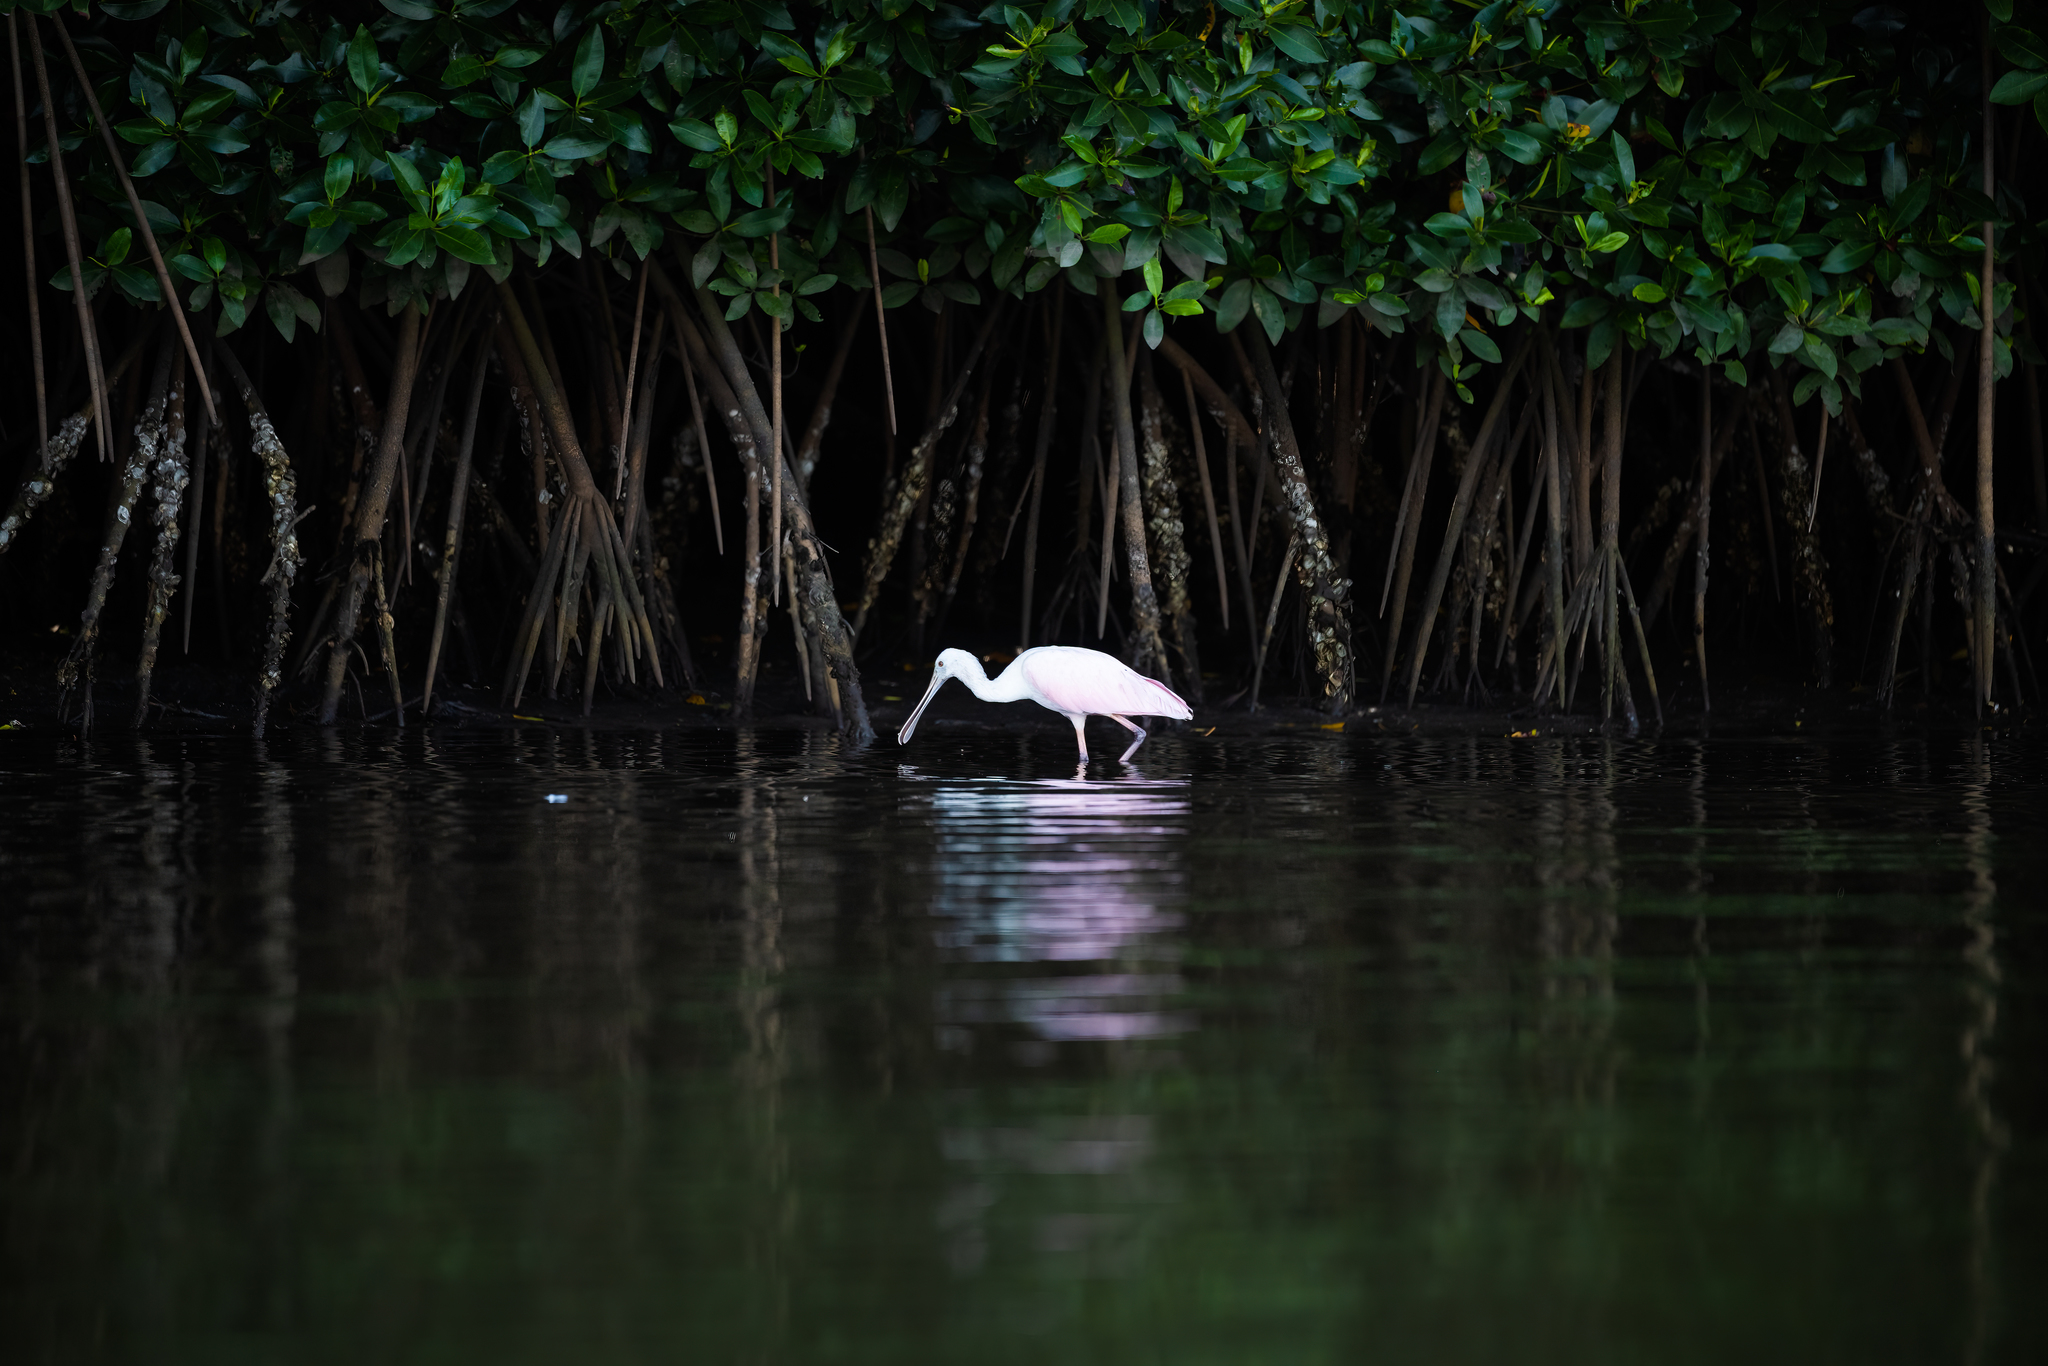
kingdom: Animalia
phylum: Chordata
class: Aves
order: Pelecaniformes
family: Threskiornithidae
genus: Platalea
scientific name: Platalea ajaja
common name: Roseate spoonbill
